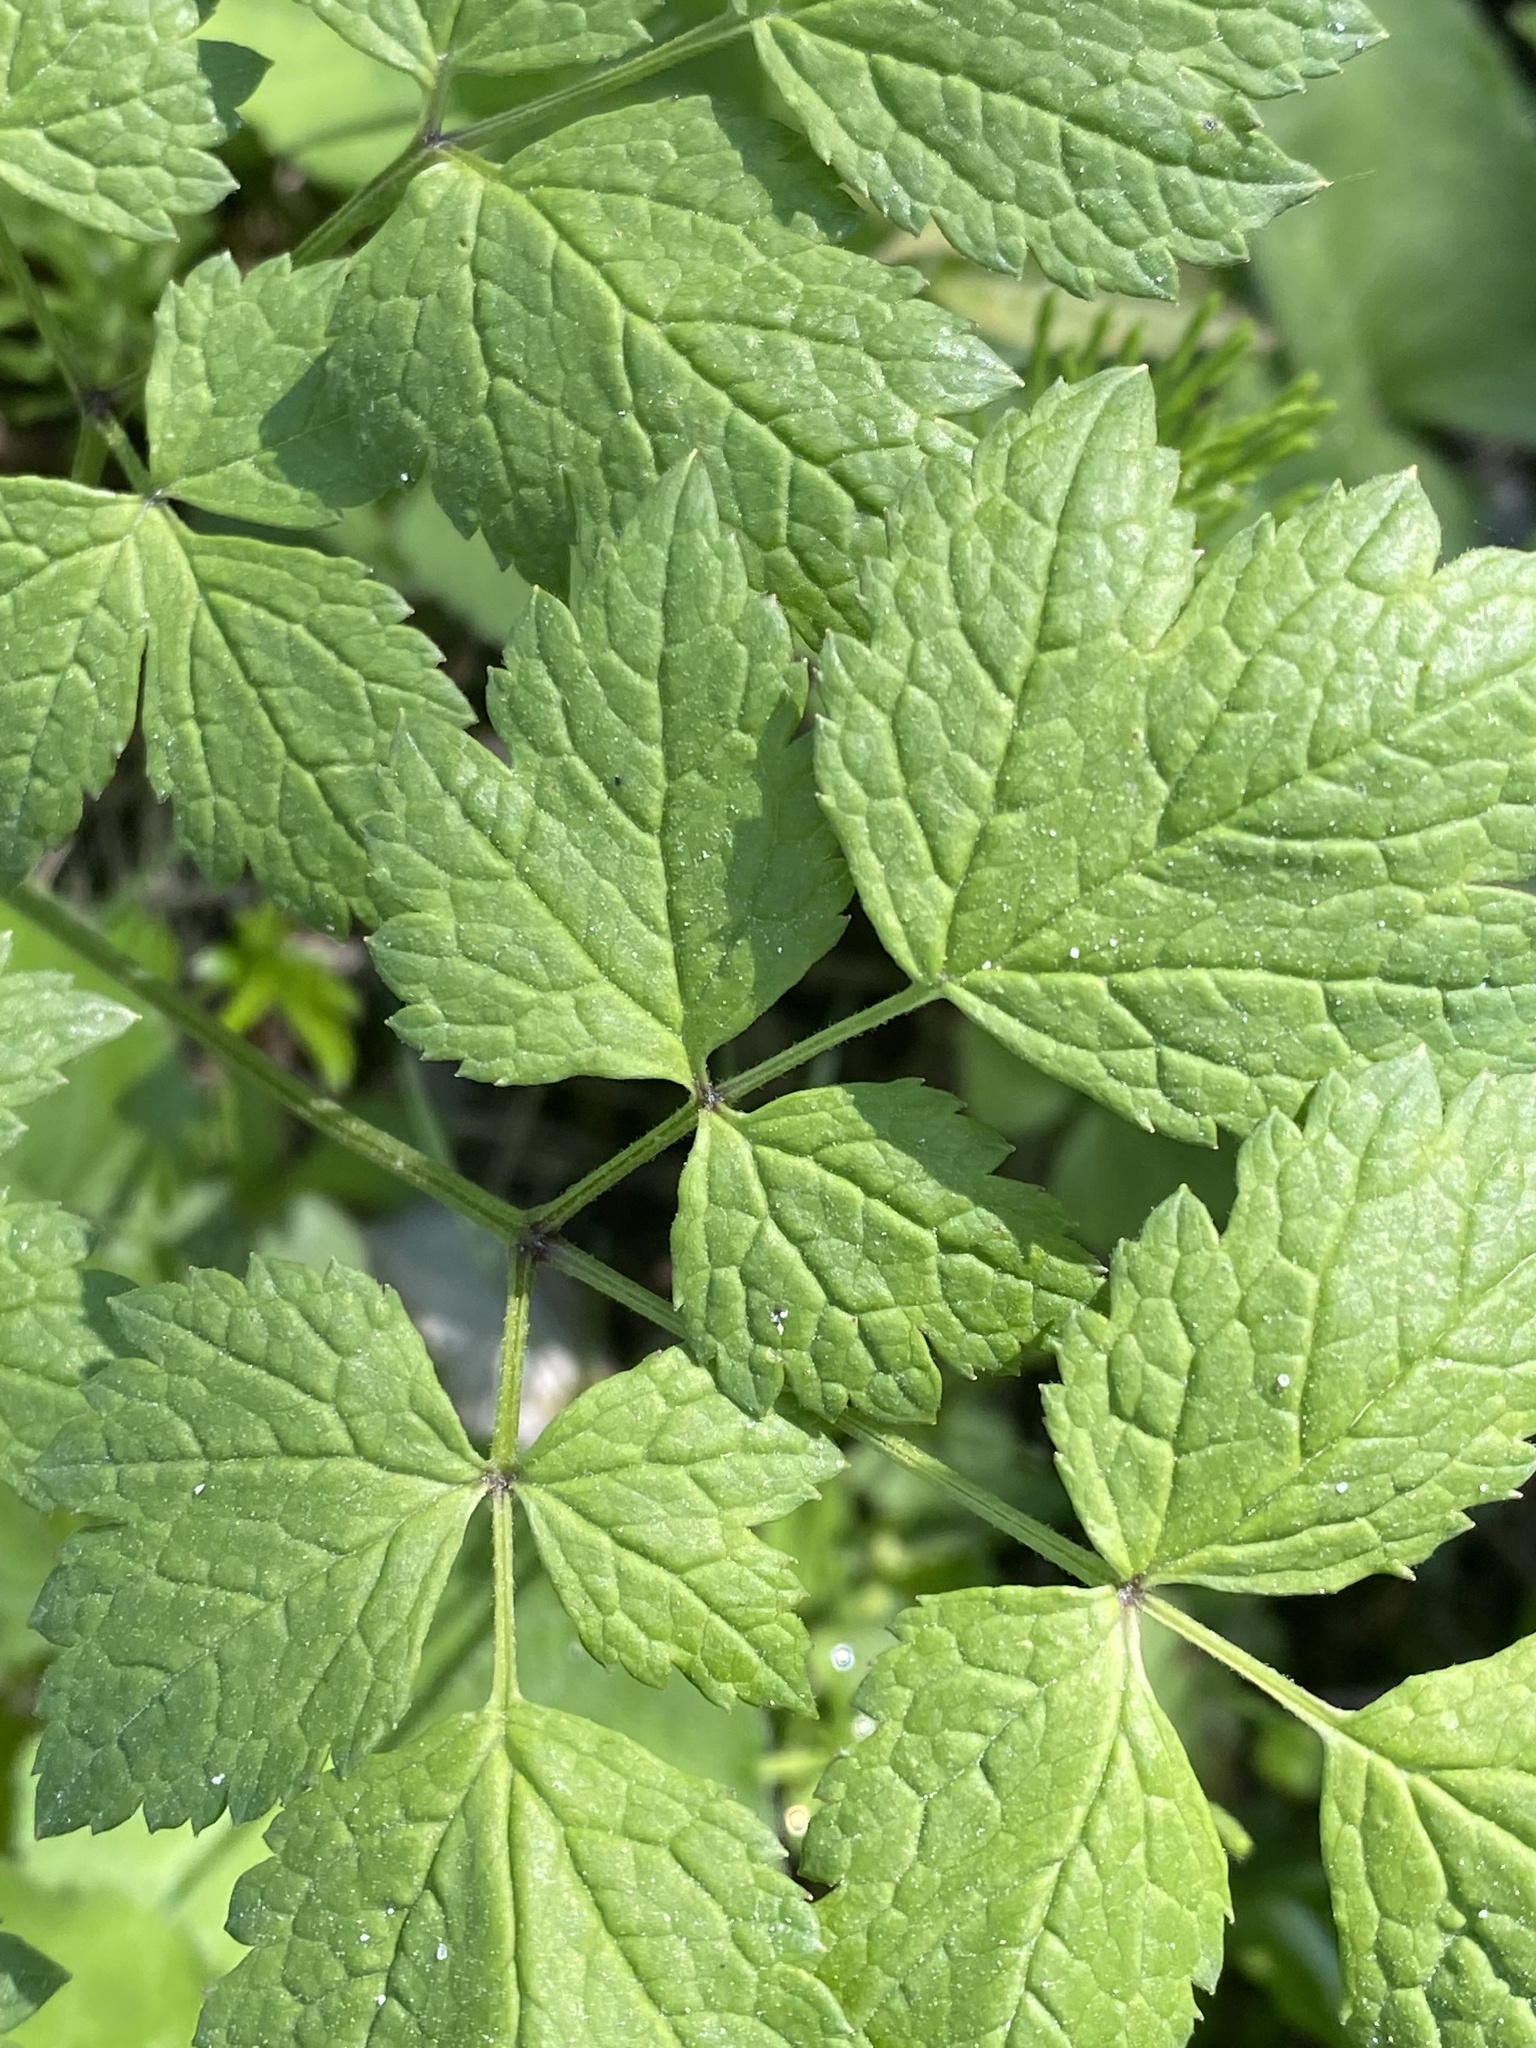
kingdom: Plantae
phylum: Tracheophyta
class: Magnoliopsida
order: Ranunculales
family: Ranunculaceae
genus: Actaea
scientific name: Actaea rubra
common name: Red baneberry
